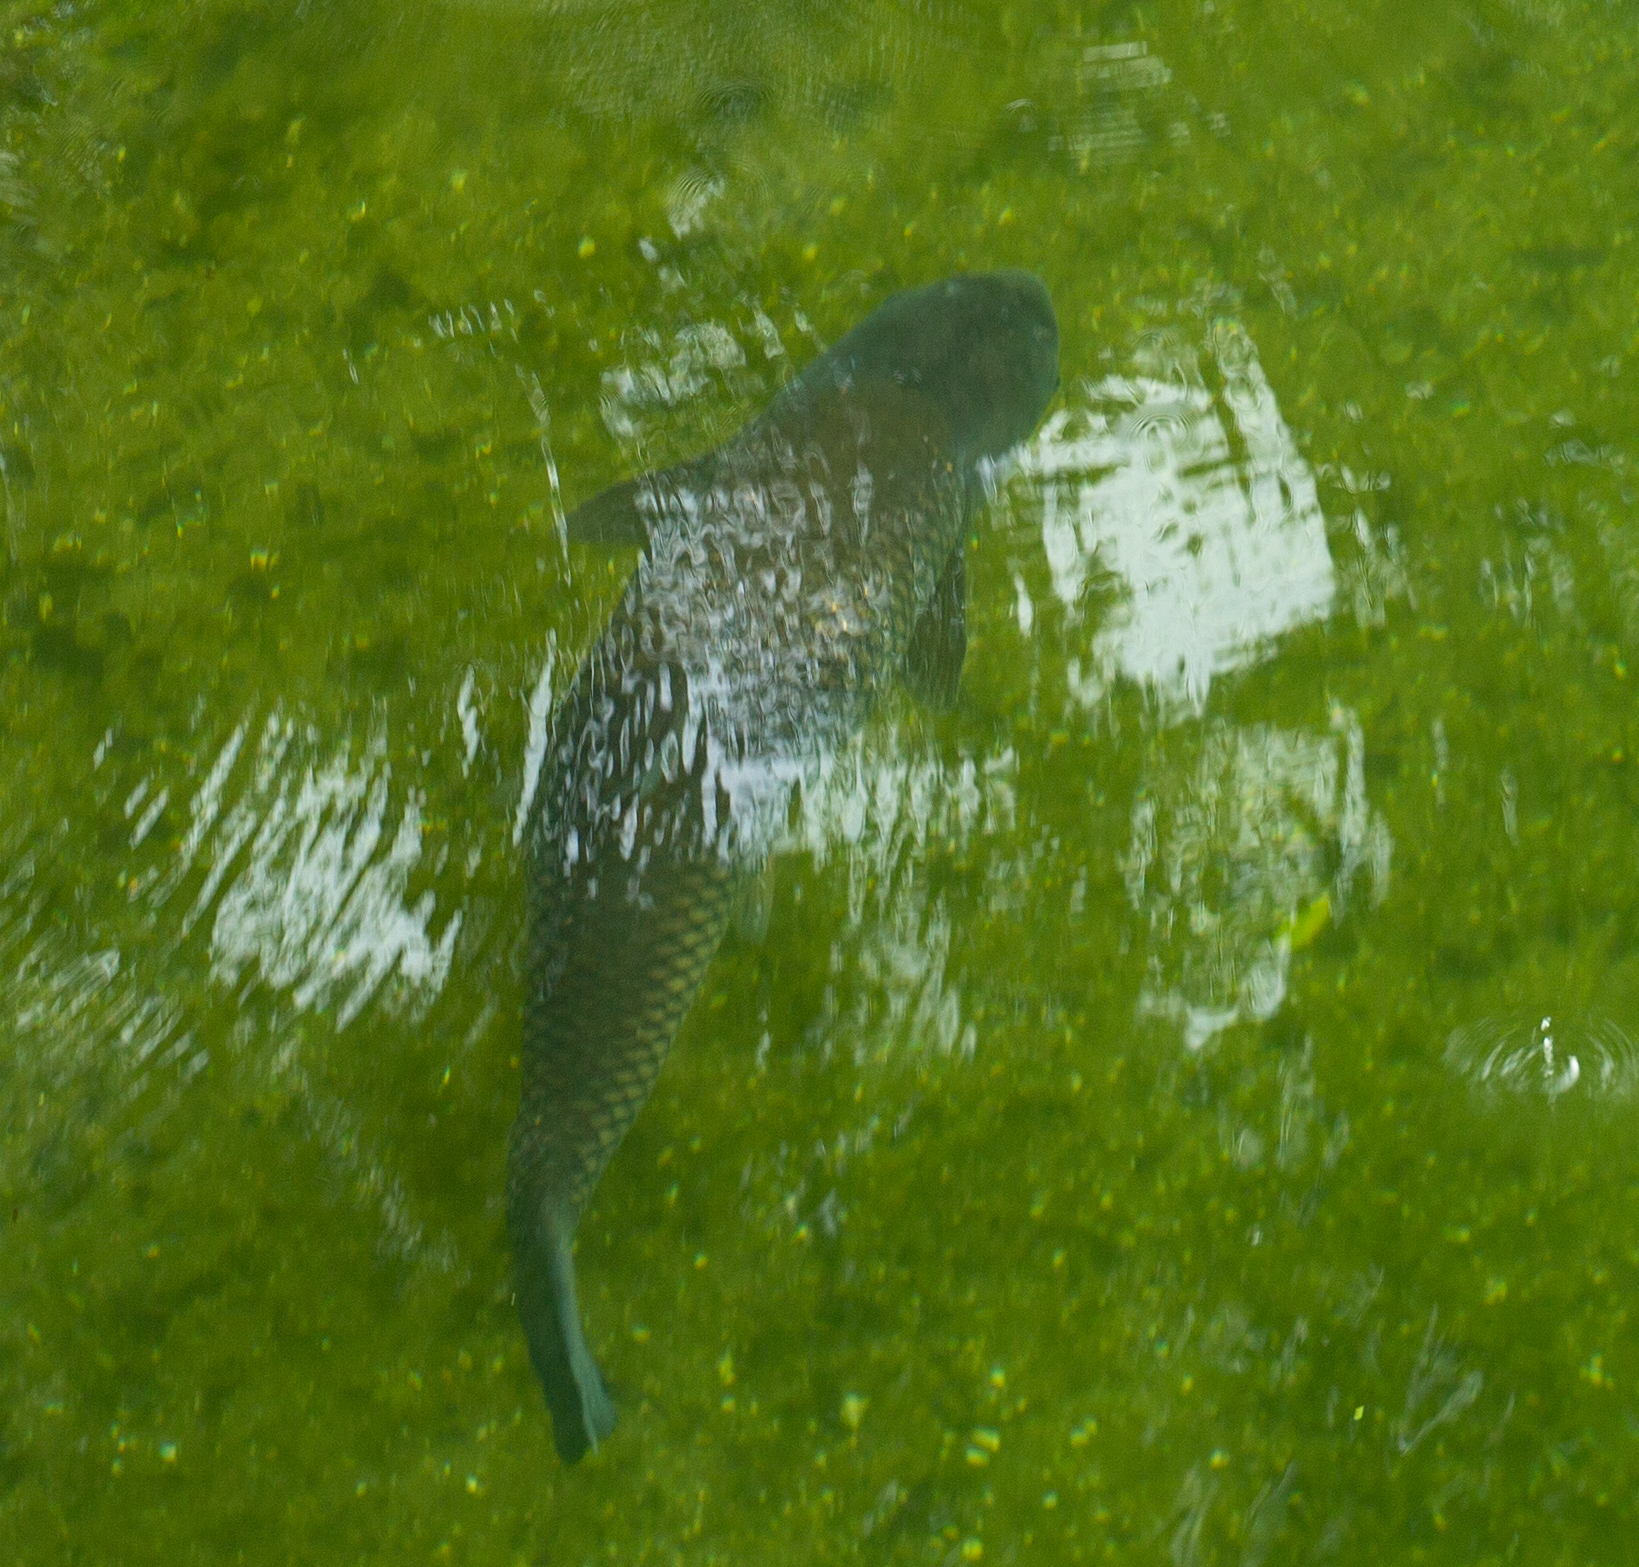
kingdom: Animalia
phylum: Chordata
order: Cypriniformes
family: Cyprinidae
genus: Ctenopharyngodon
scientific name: Ctenopharyngodon idella
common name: Grass carp
